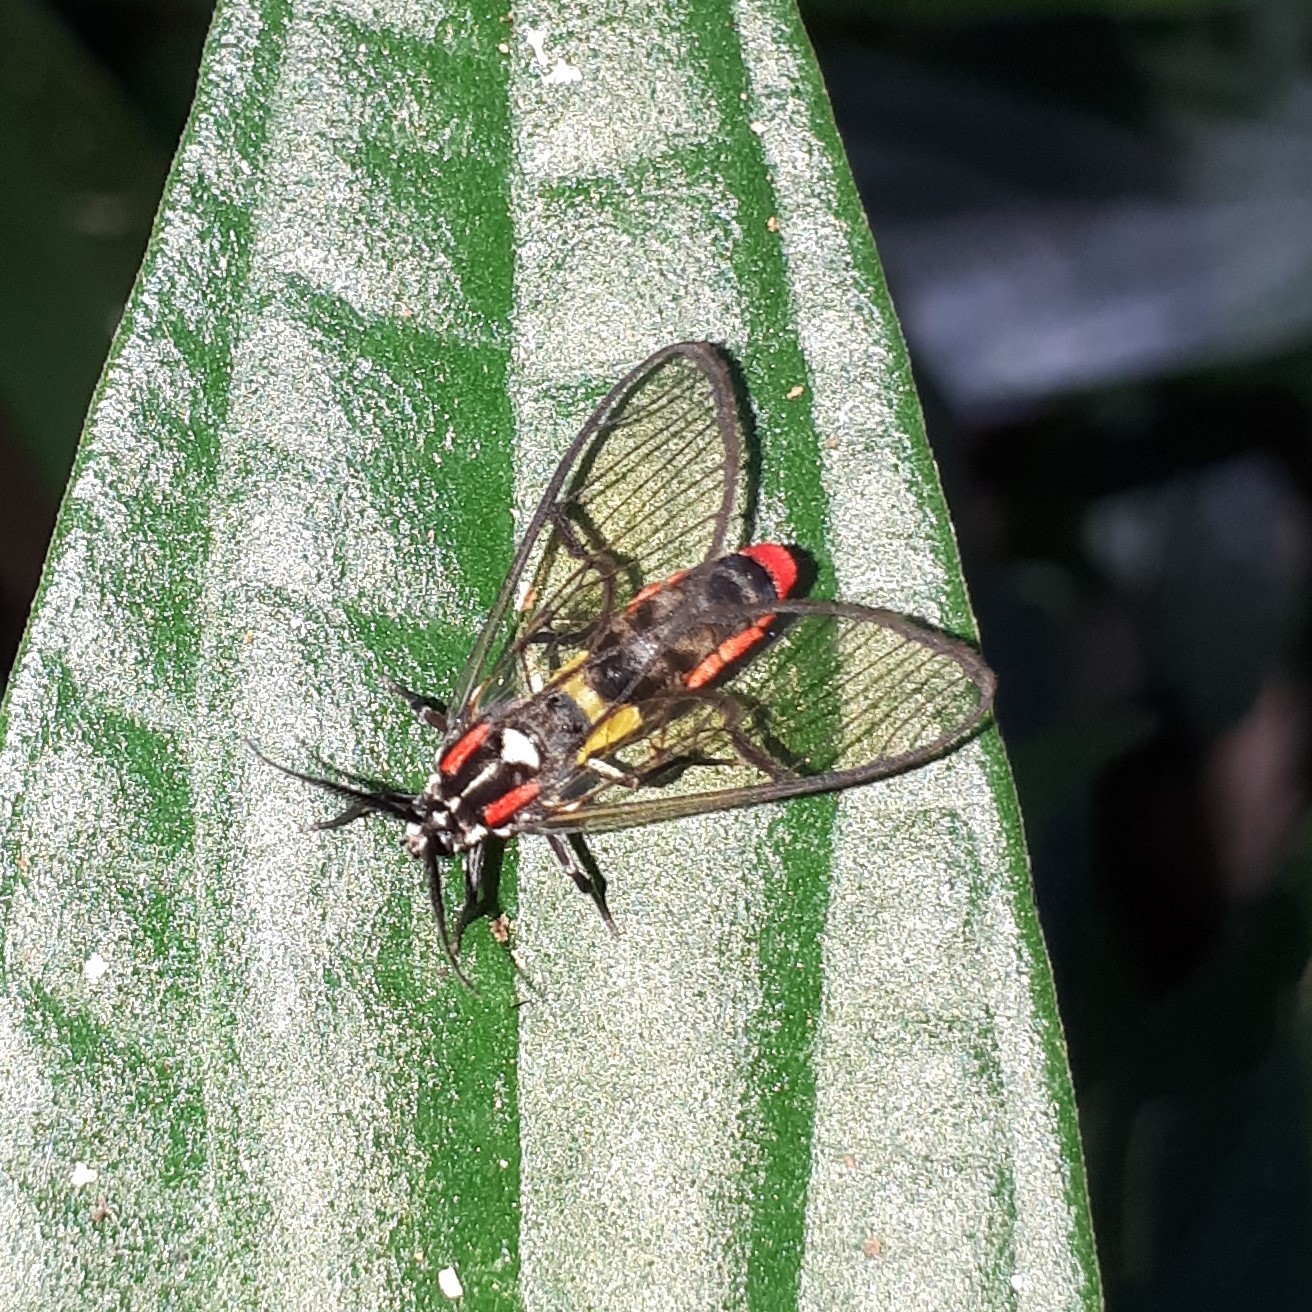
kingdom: Animalia
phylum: Arthropoda
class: Insecta
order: Lepidoptera
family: Erebidae
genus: Argyroeides
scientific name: Argyroeides braco
